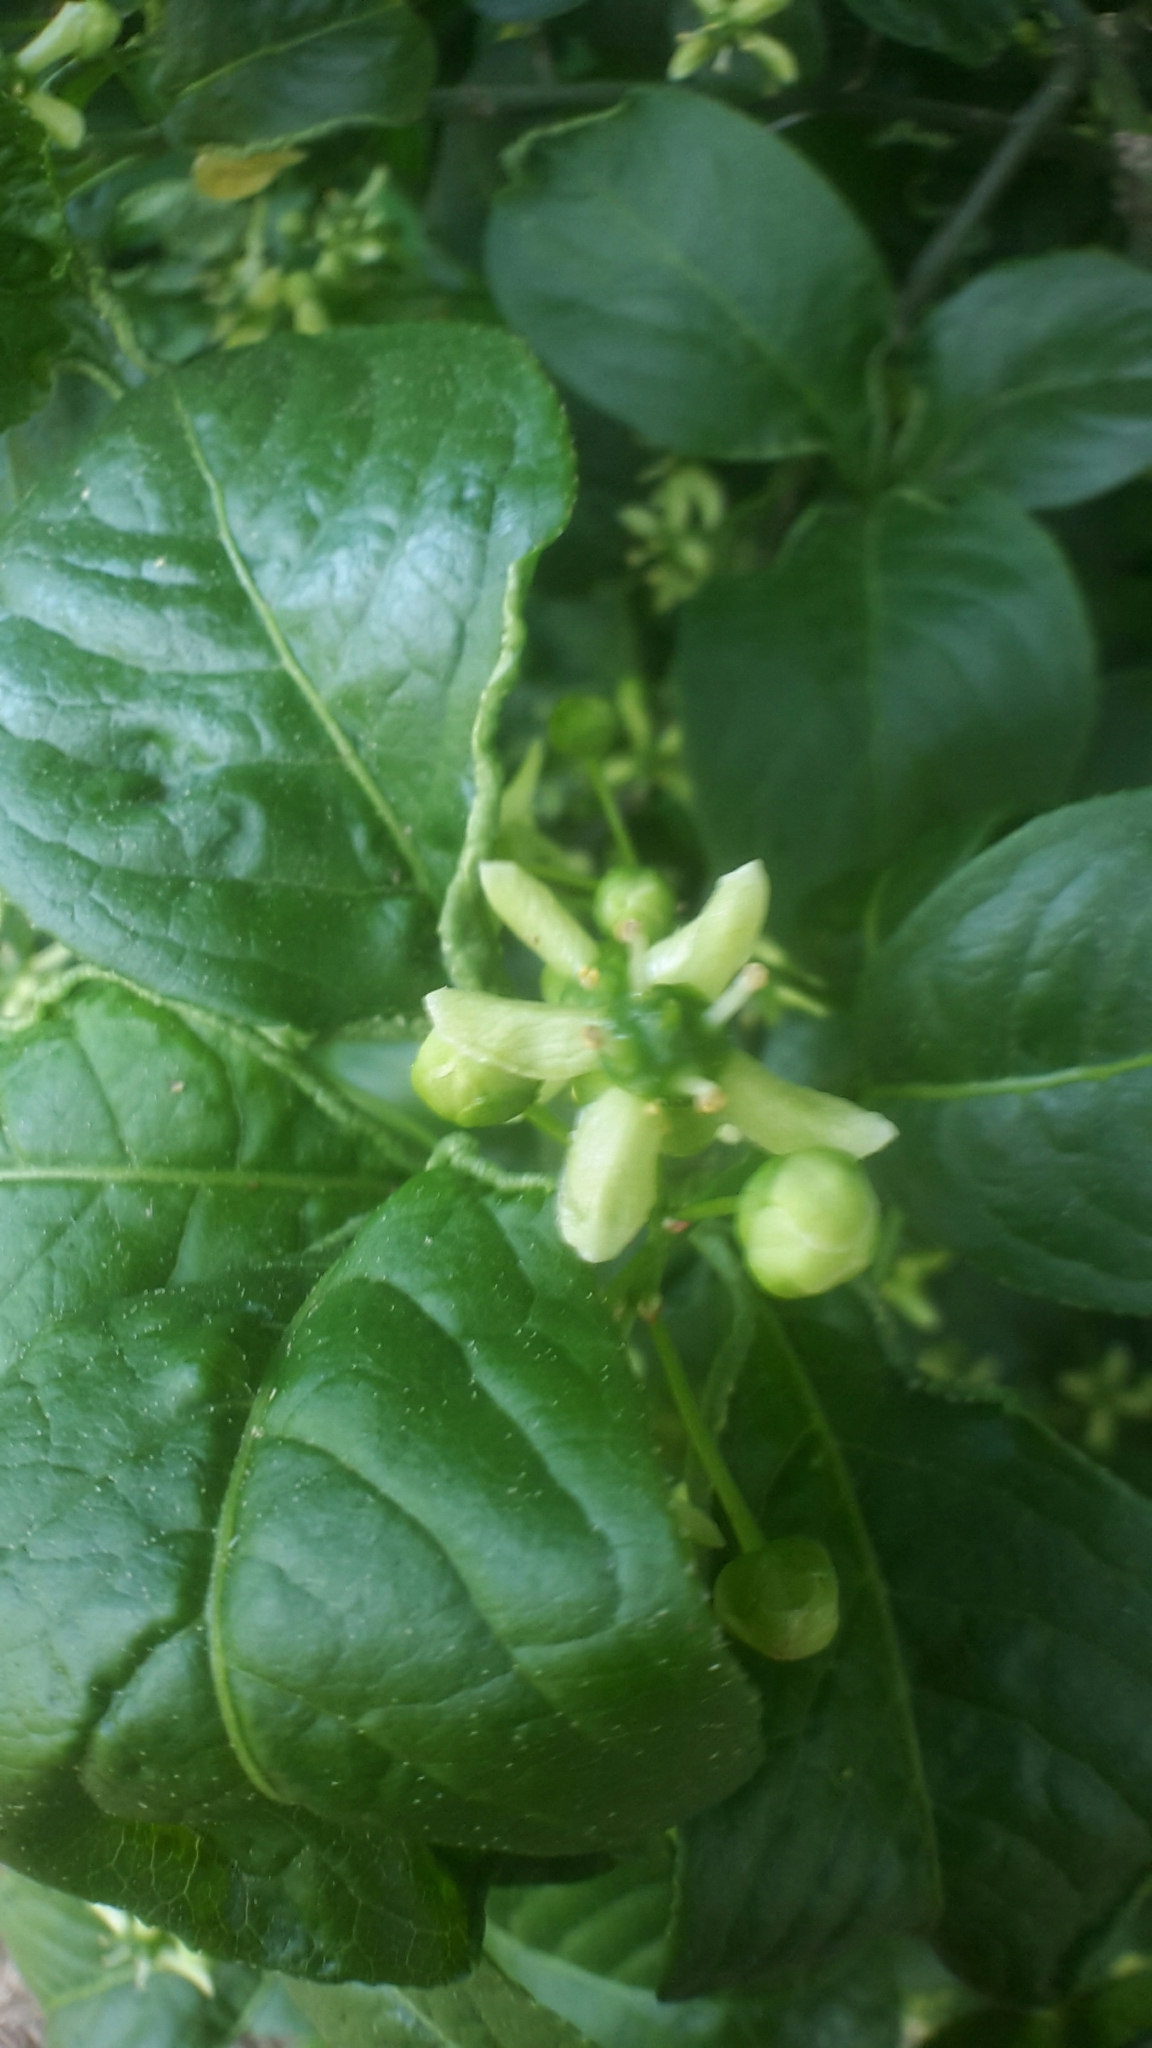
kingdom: Plantae
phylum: Tracheophyta
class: Magnoliopsida
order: Celastrales
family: Celastraceae
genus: Euonymus
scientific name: Euonymus europaeus
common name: Spindle
